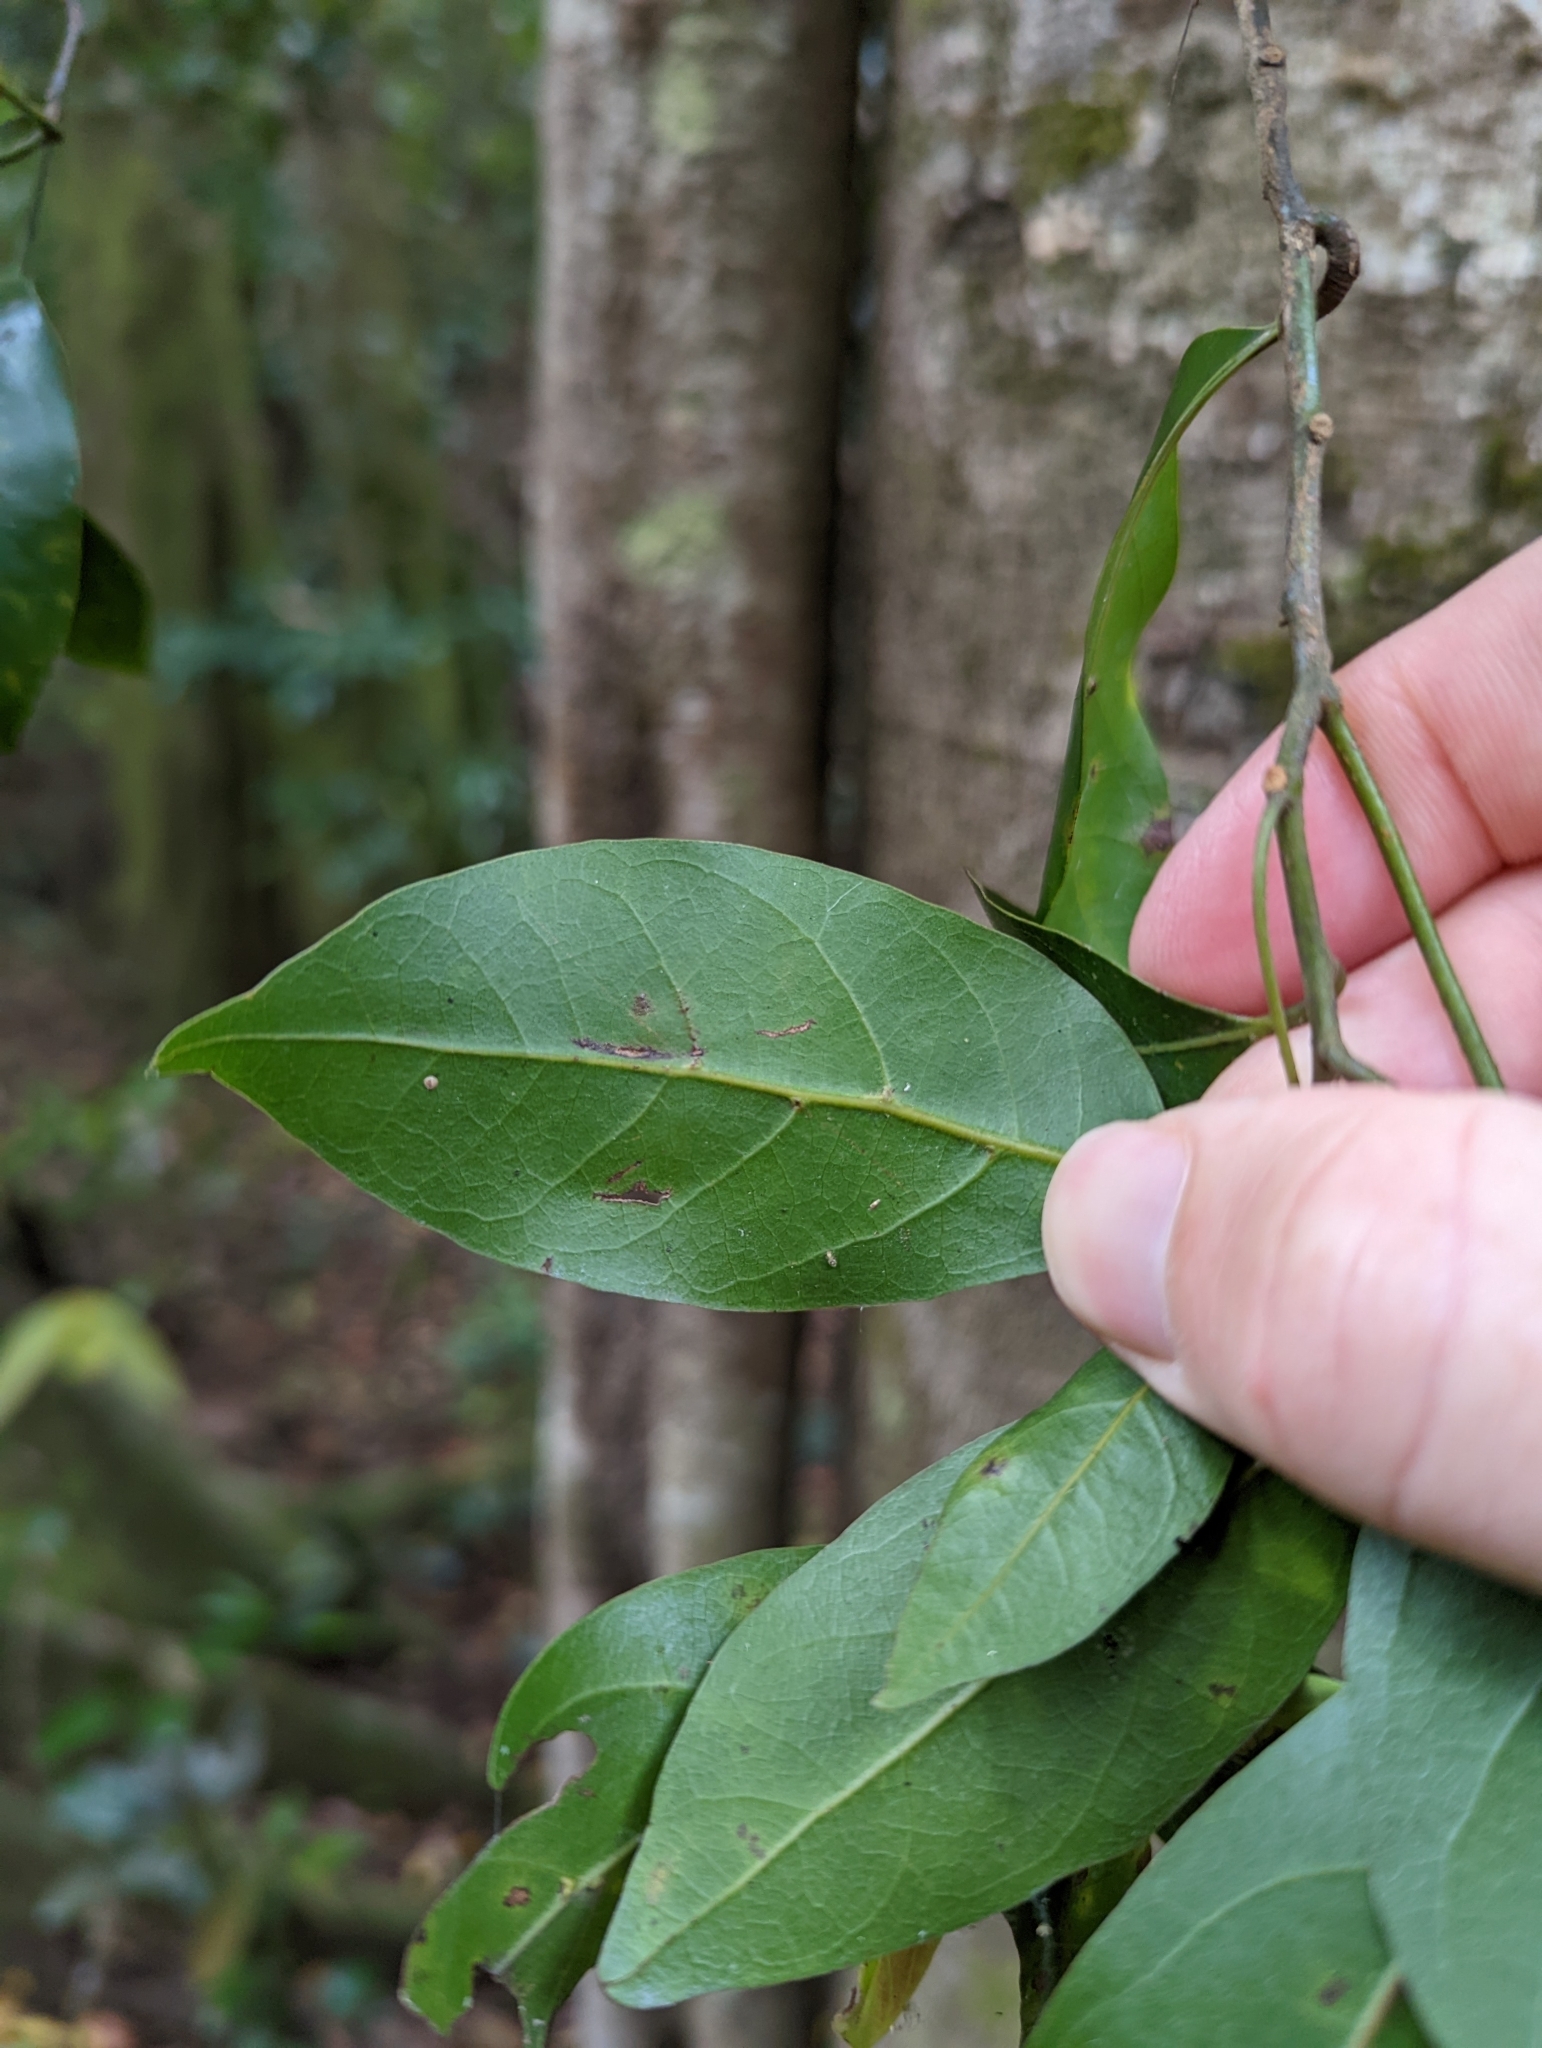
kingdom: Plantae
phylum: Tracheophyta
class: Magnoliopsida
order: Laurales
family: Lauraceae
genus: Endiandra
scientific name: Endiandra discolor
